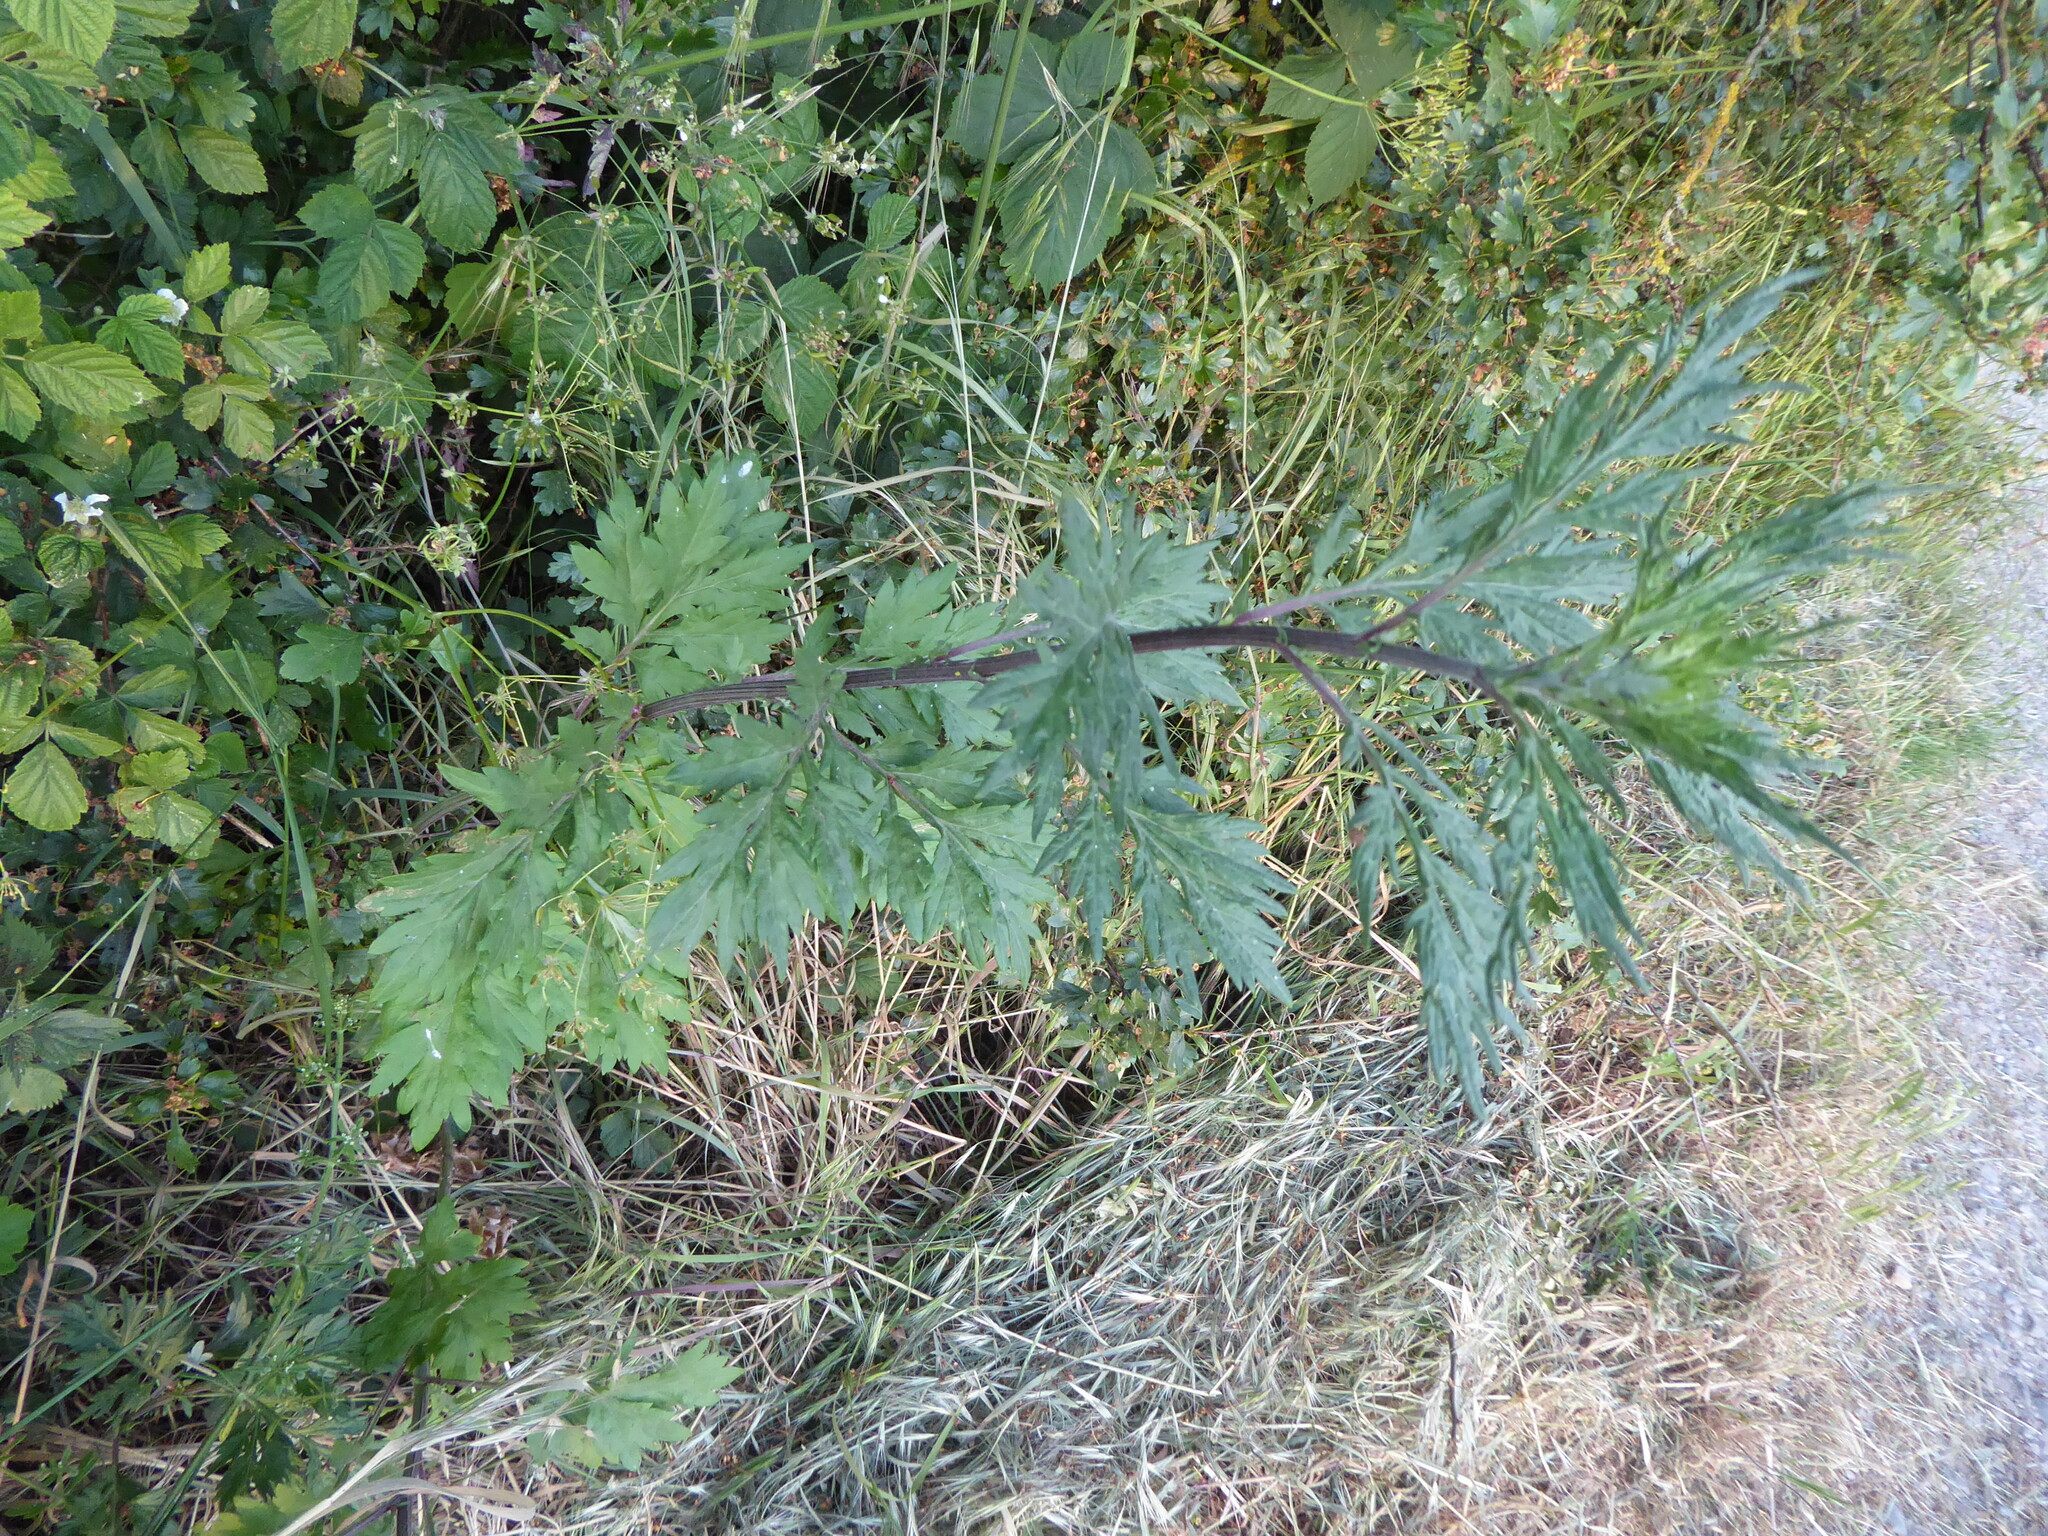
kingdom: Plantae
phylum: Tracheophyta
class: Magnoliopsida
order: Asterales
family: Asteraceae
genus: Artemisia
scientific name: Artemisia vulgaris
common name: Mugwort
